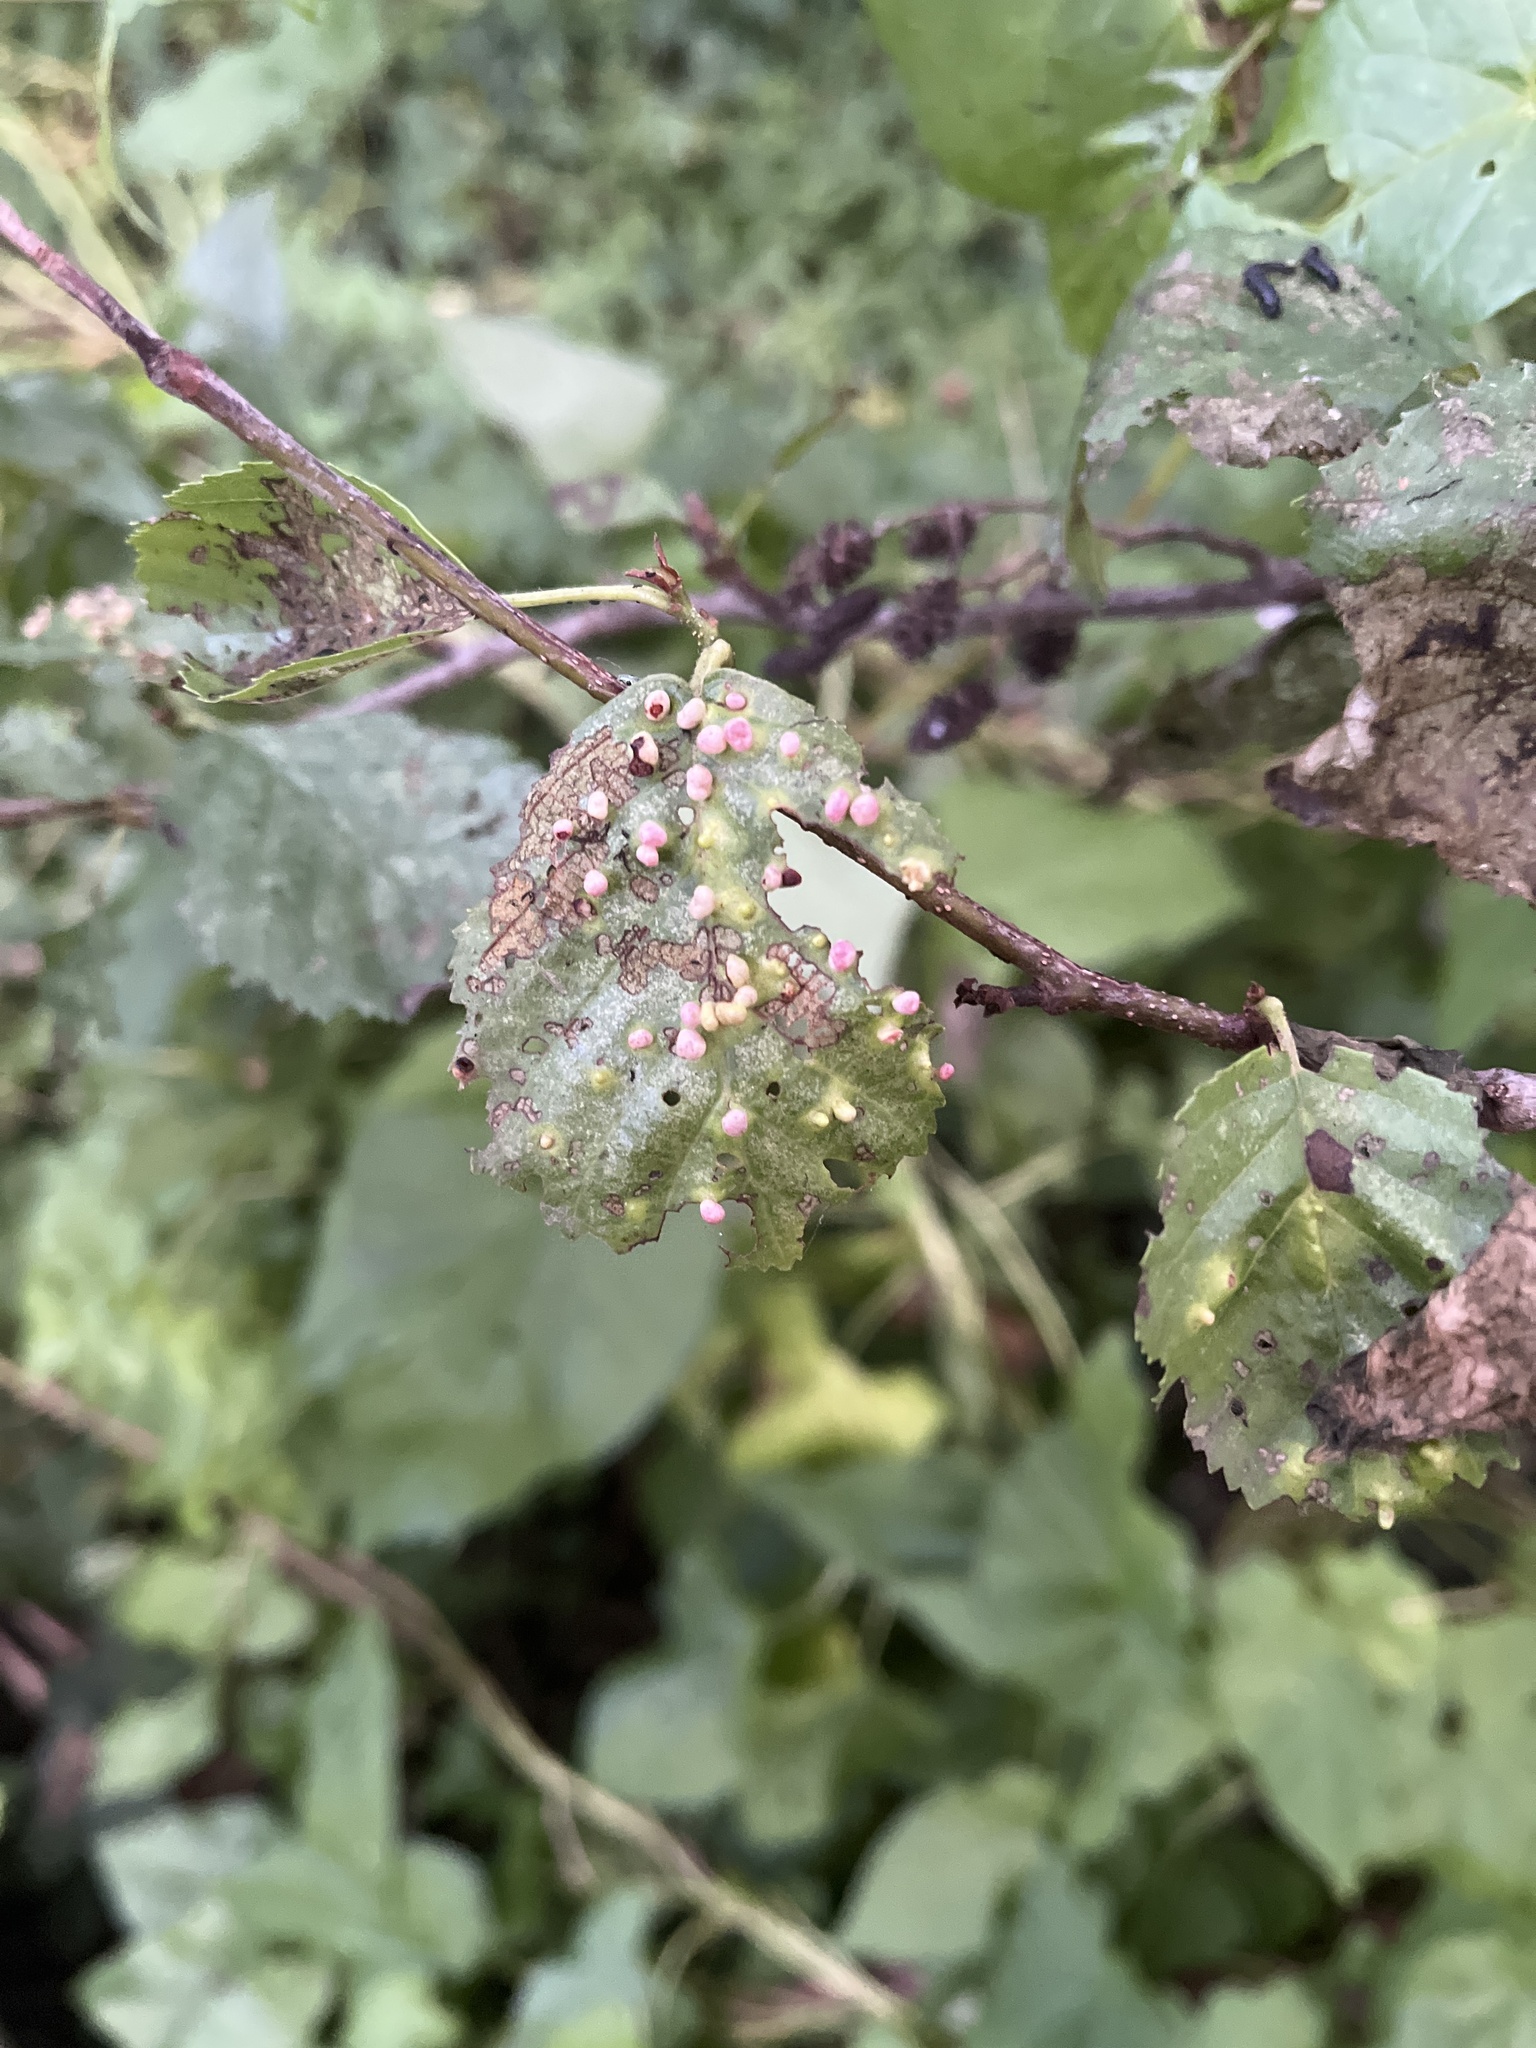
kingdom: Animalia
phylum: Arthropoda
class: Arachnida
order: Trombidiformes
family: Eriophyidae
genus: Eriophyes
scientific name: Eriophyes laevis
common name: Alder leaf gall mite
